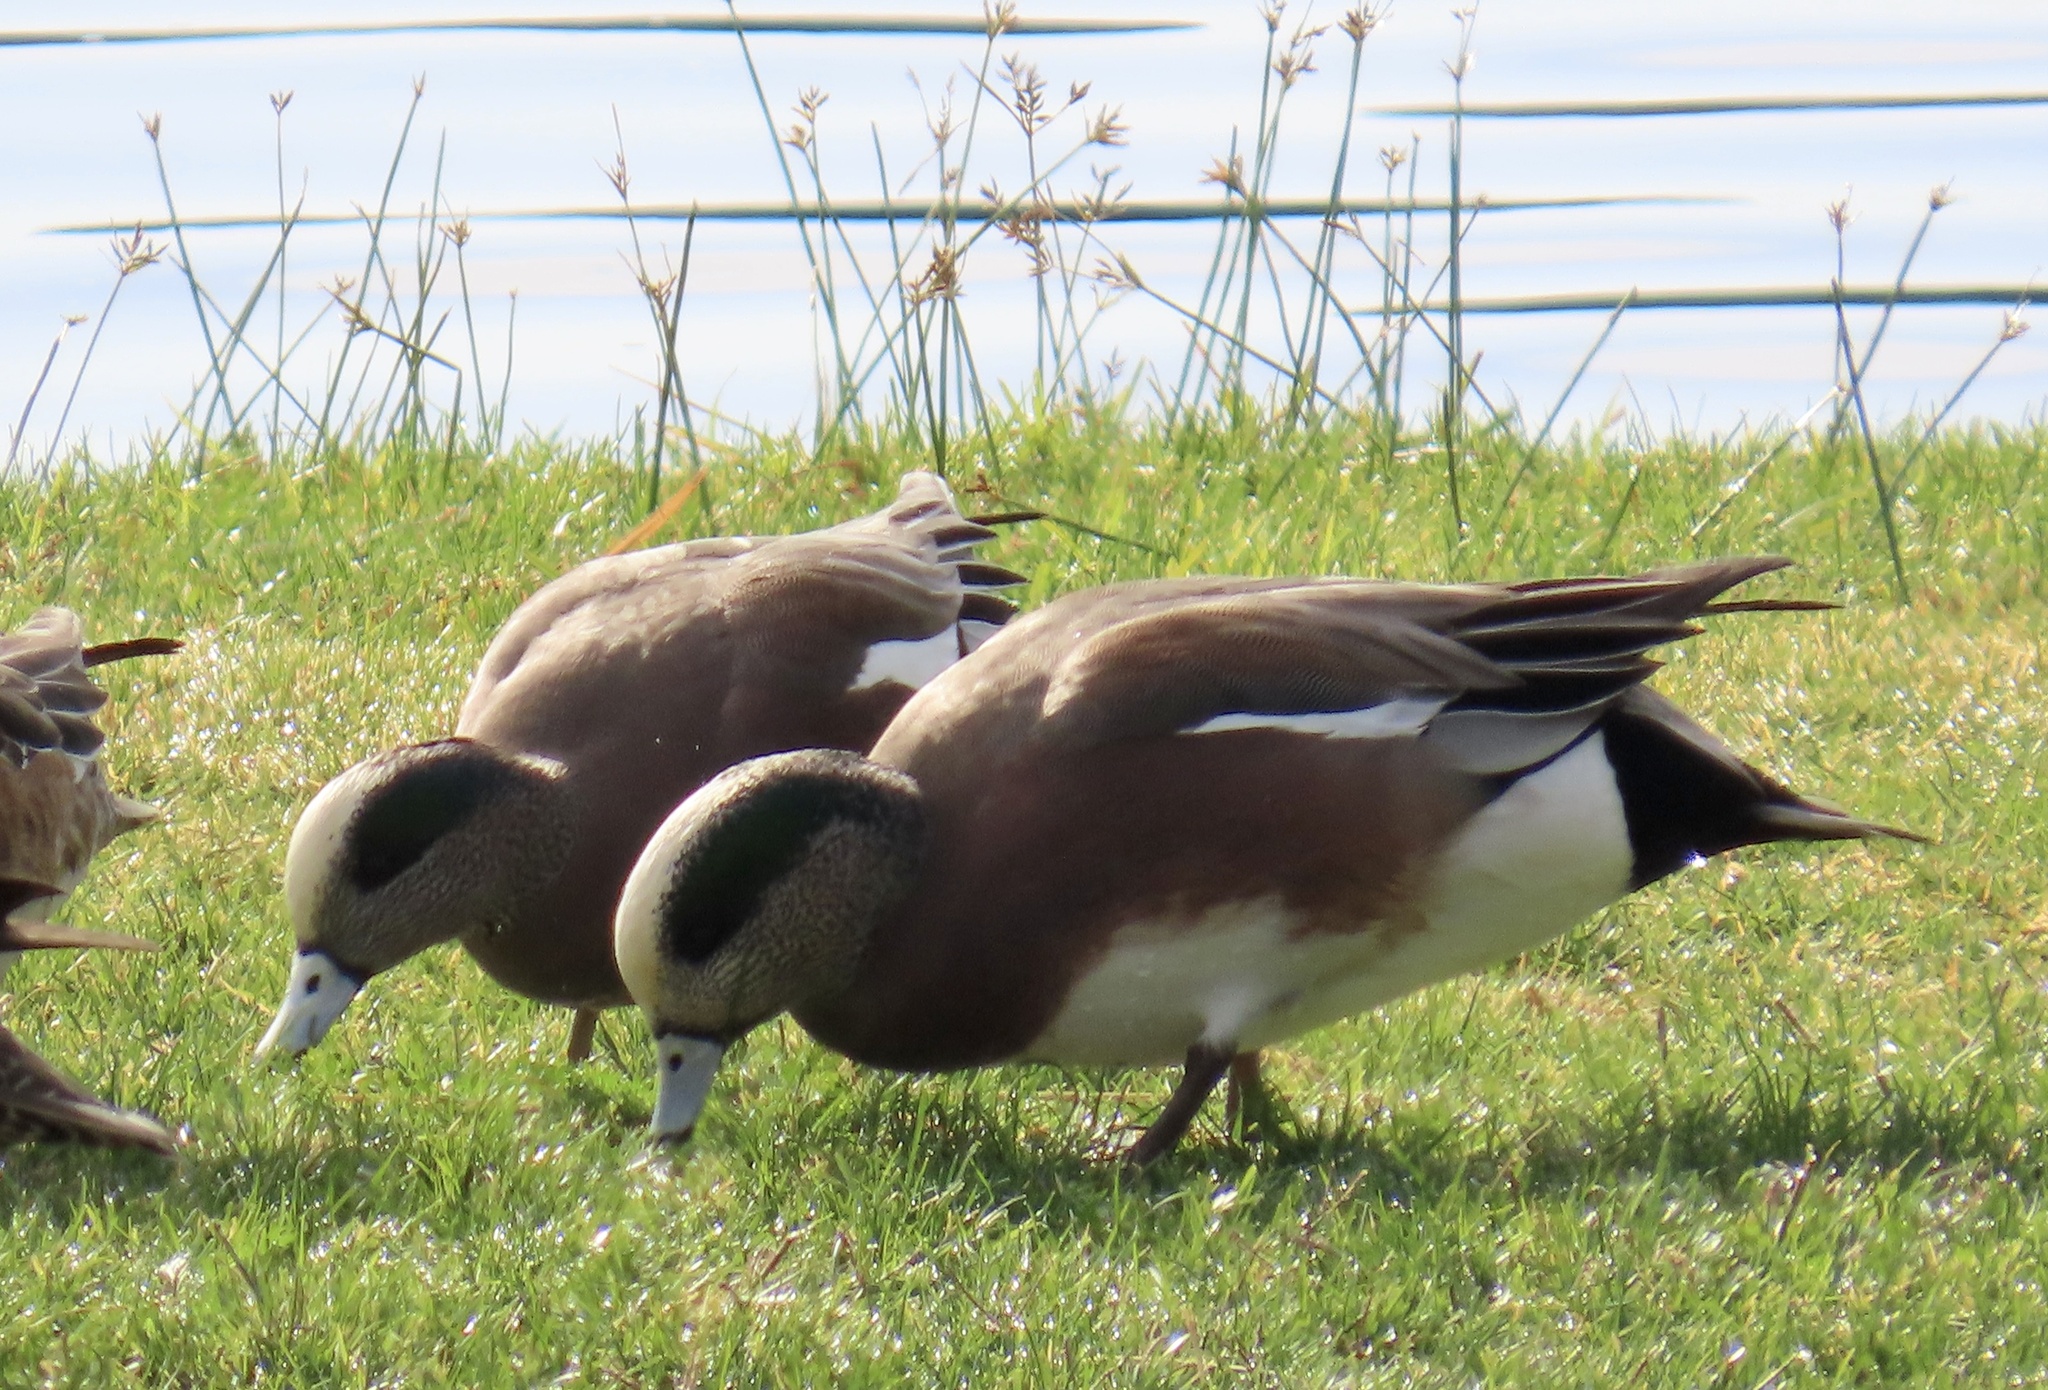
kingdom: Animalia
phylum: Chordata
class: Aves
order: Anseriformes
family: Anatidae
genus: Mareca
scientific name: Mareca americana
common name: American wigeon
